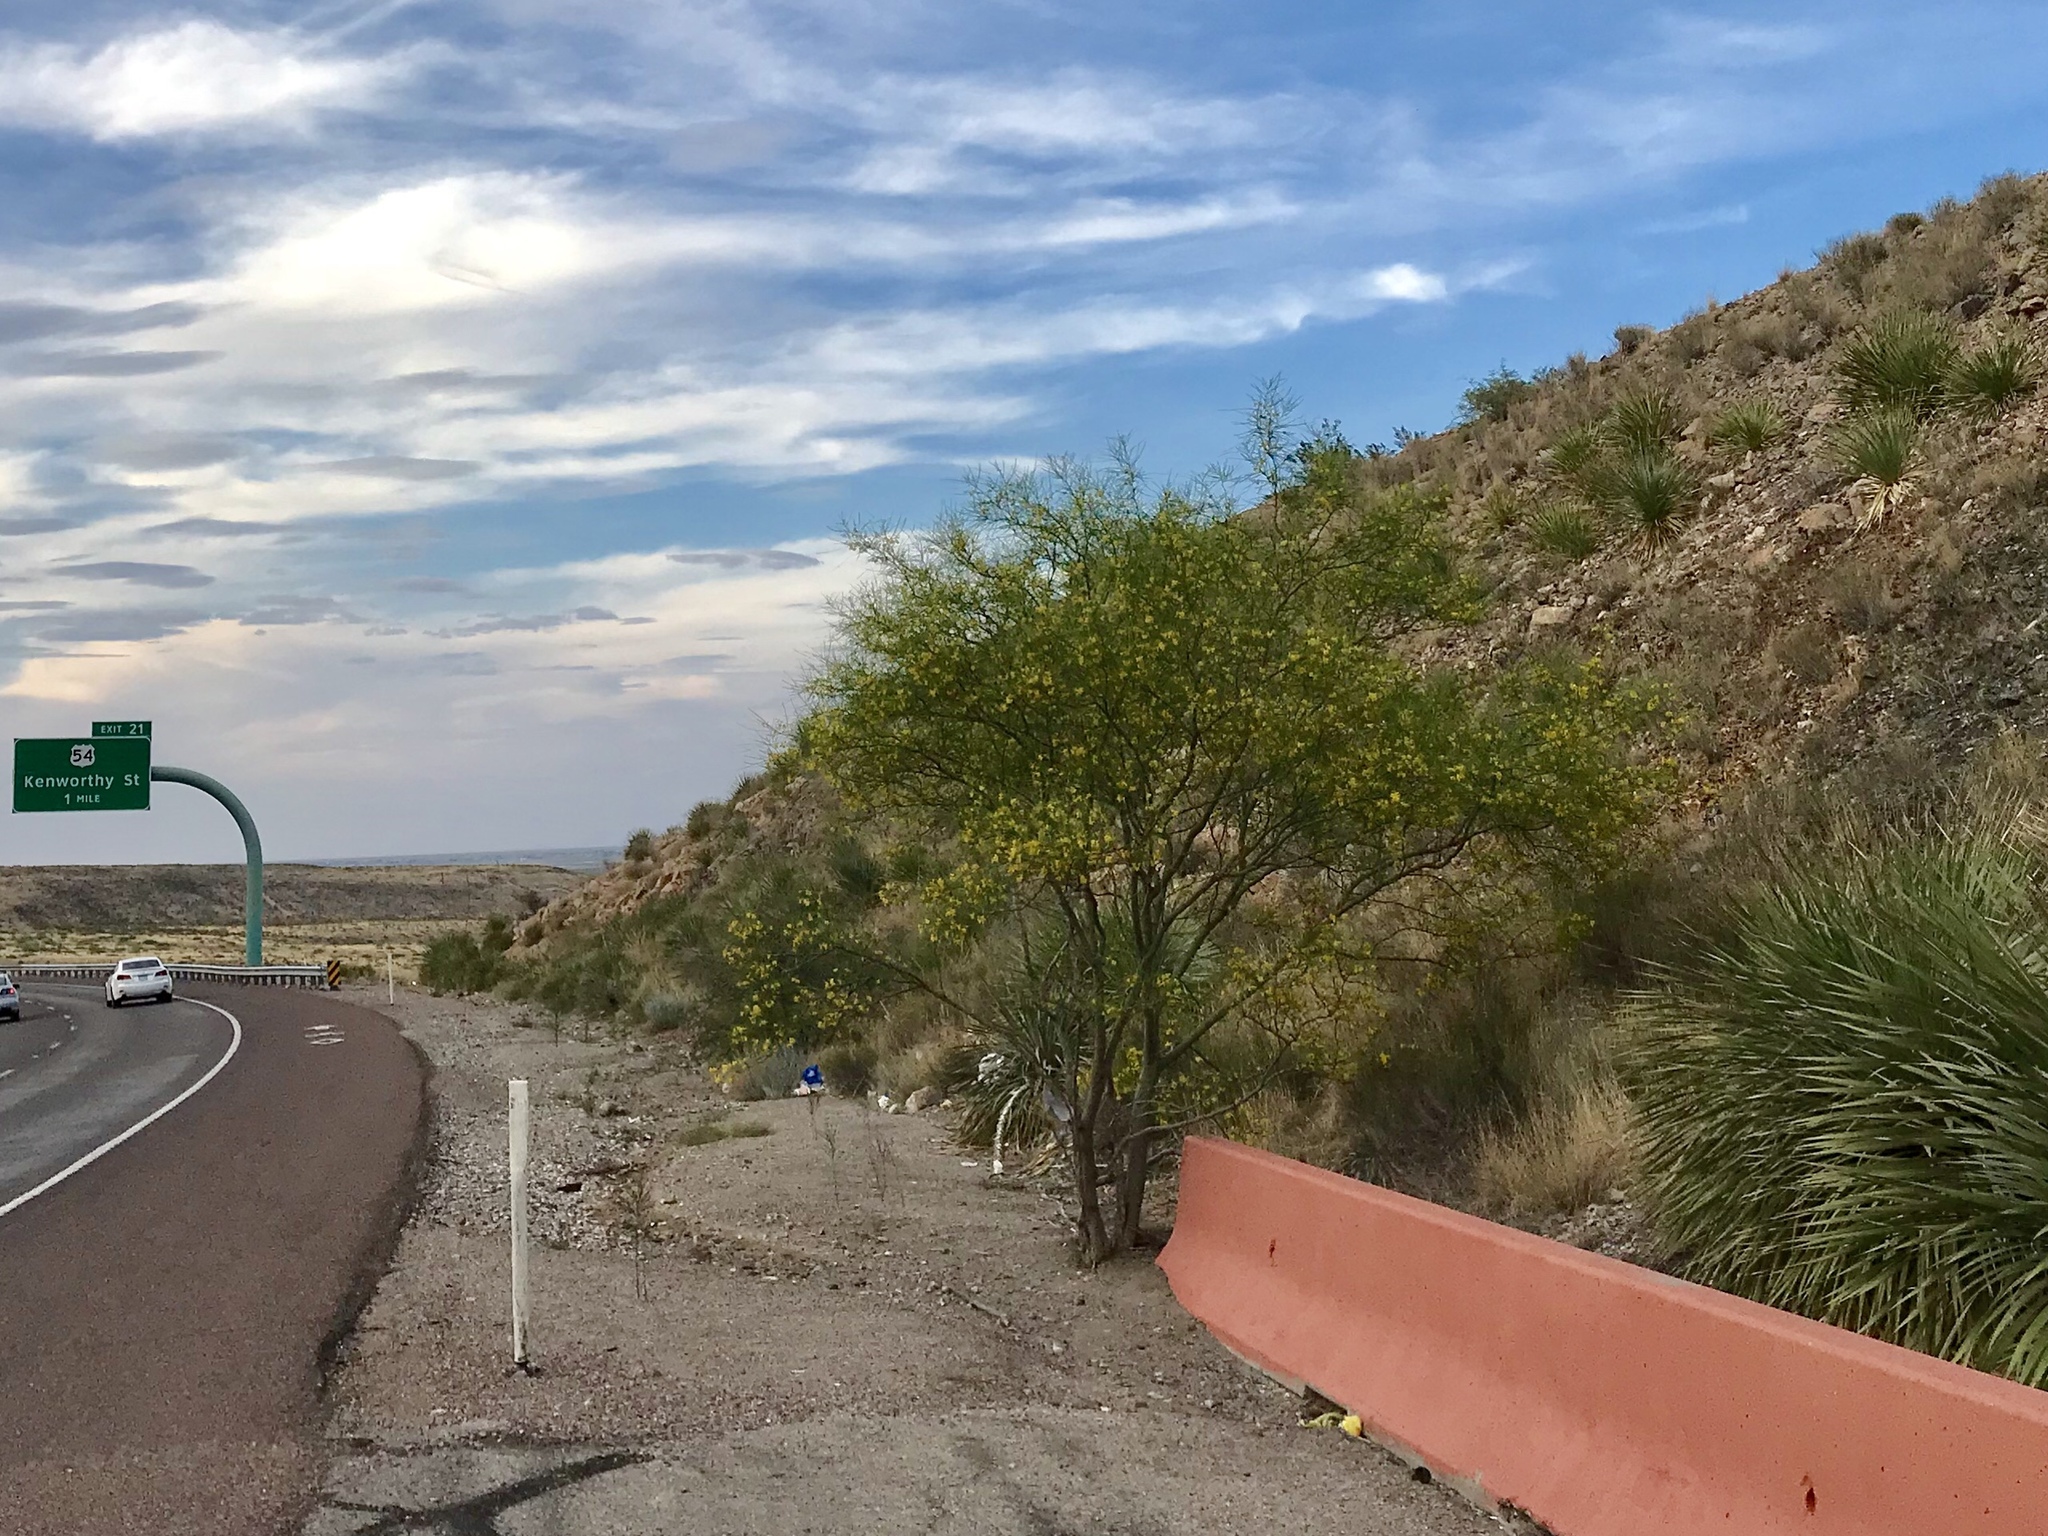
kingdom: Plantae
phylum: Tracheophyta
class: Magnoliopsida
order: Fabales
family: Fabaceae
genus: Parkinsonia
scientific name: Parkinsonia aculeata
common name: Jerusalem thorn
